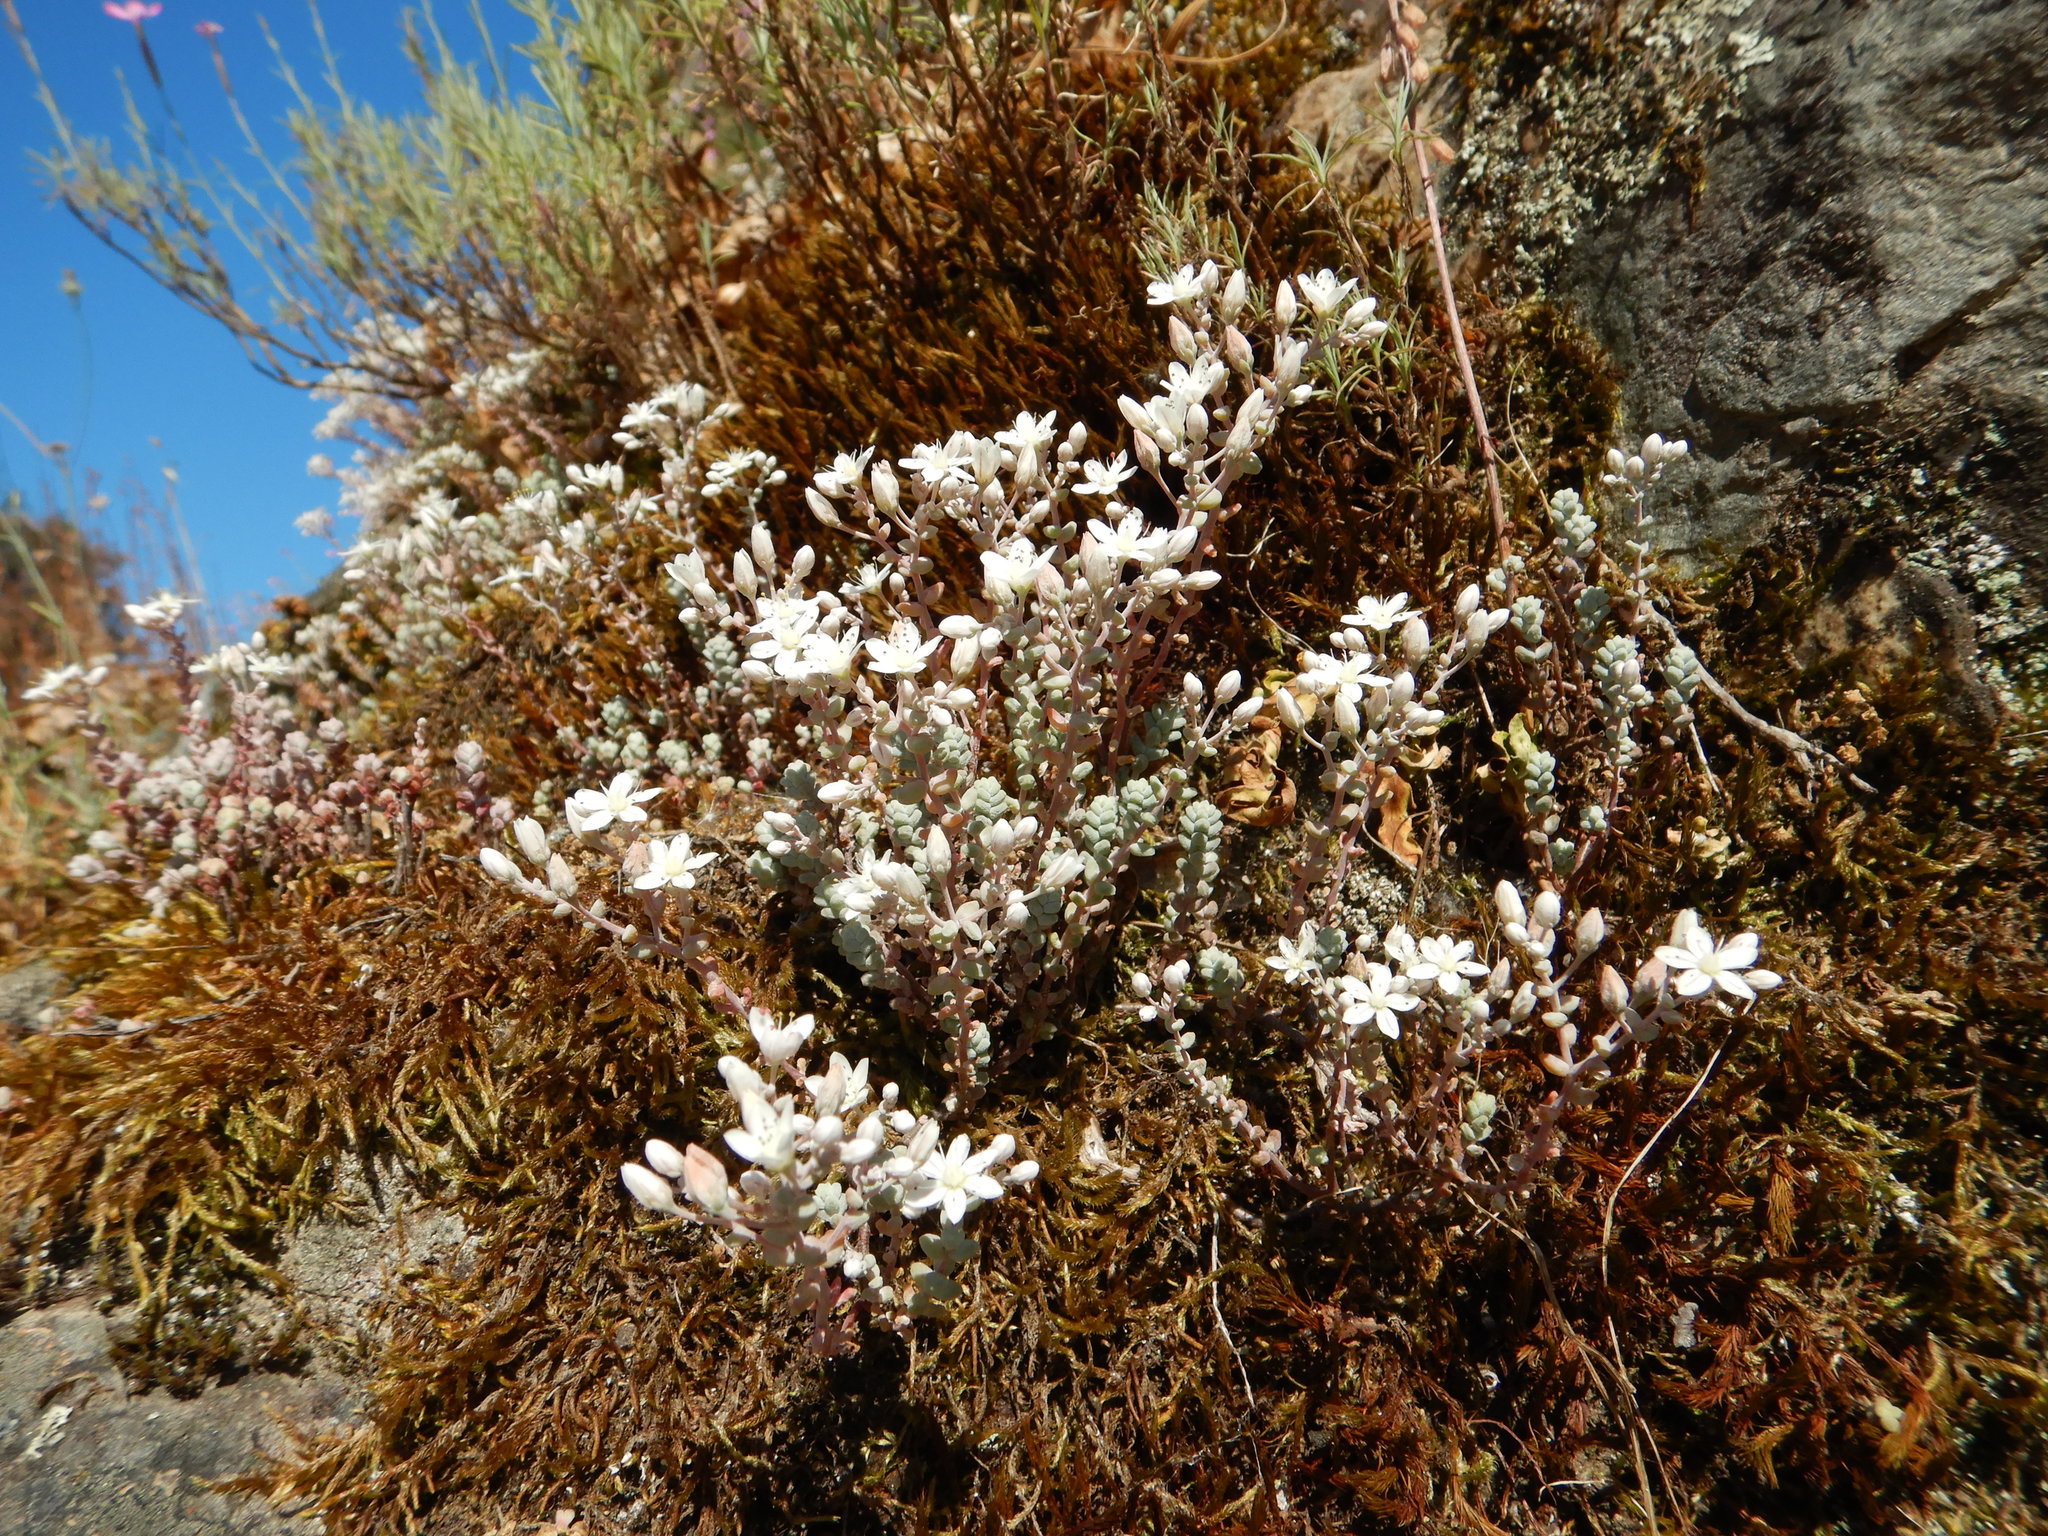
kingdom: Plantae
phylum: Tracheophyta
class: Magnoliopsida
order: Saxifragales
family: Crassulaceae
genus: Sedum
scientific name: Sedum brevifolium
